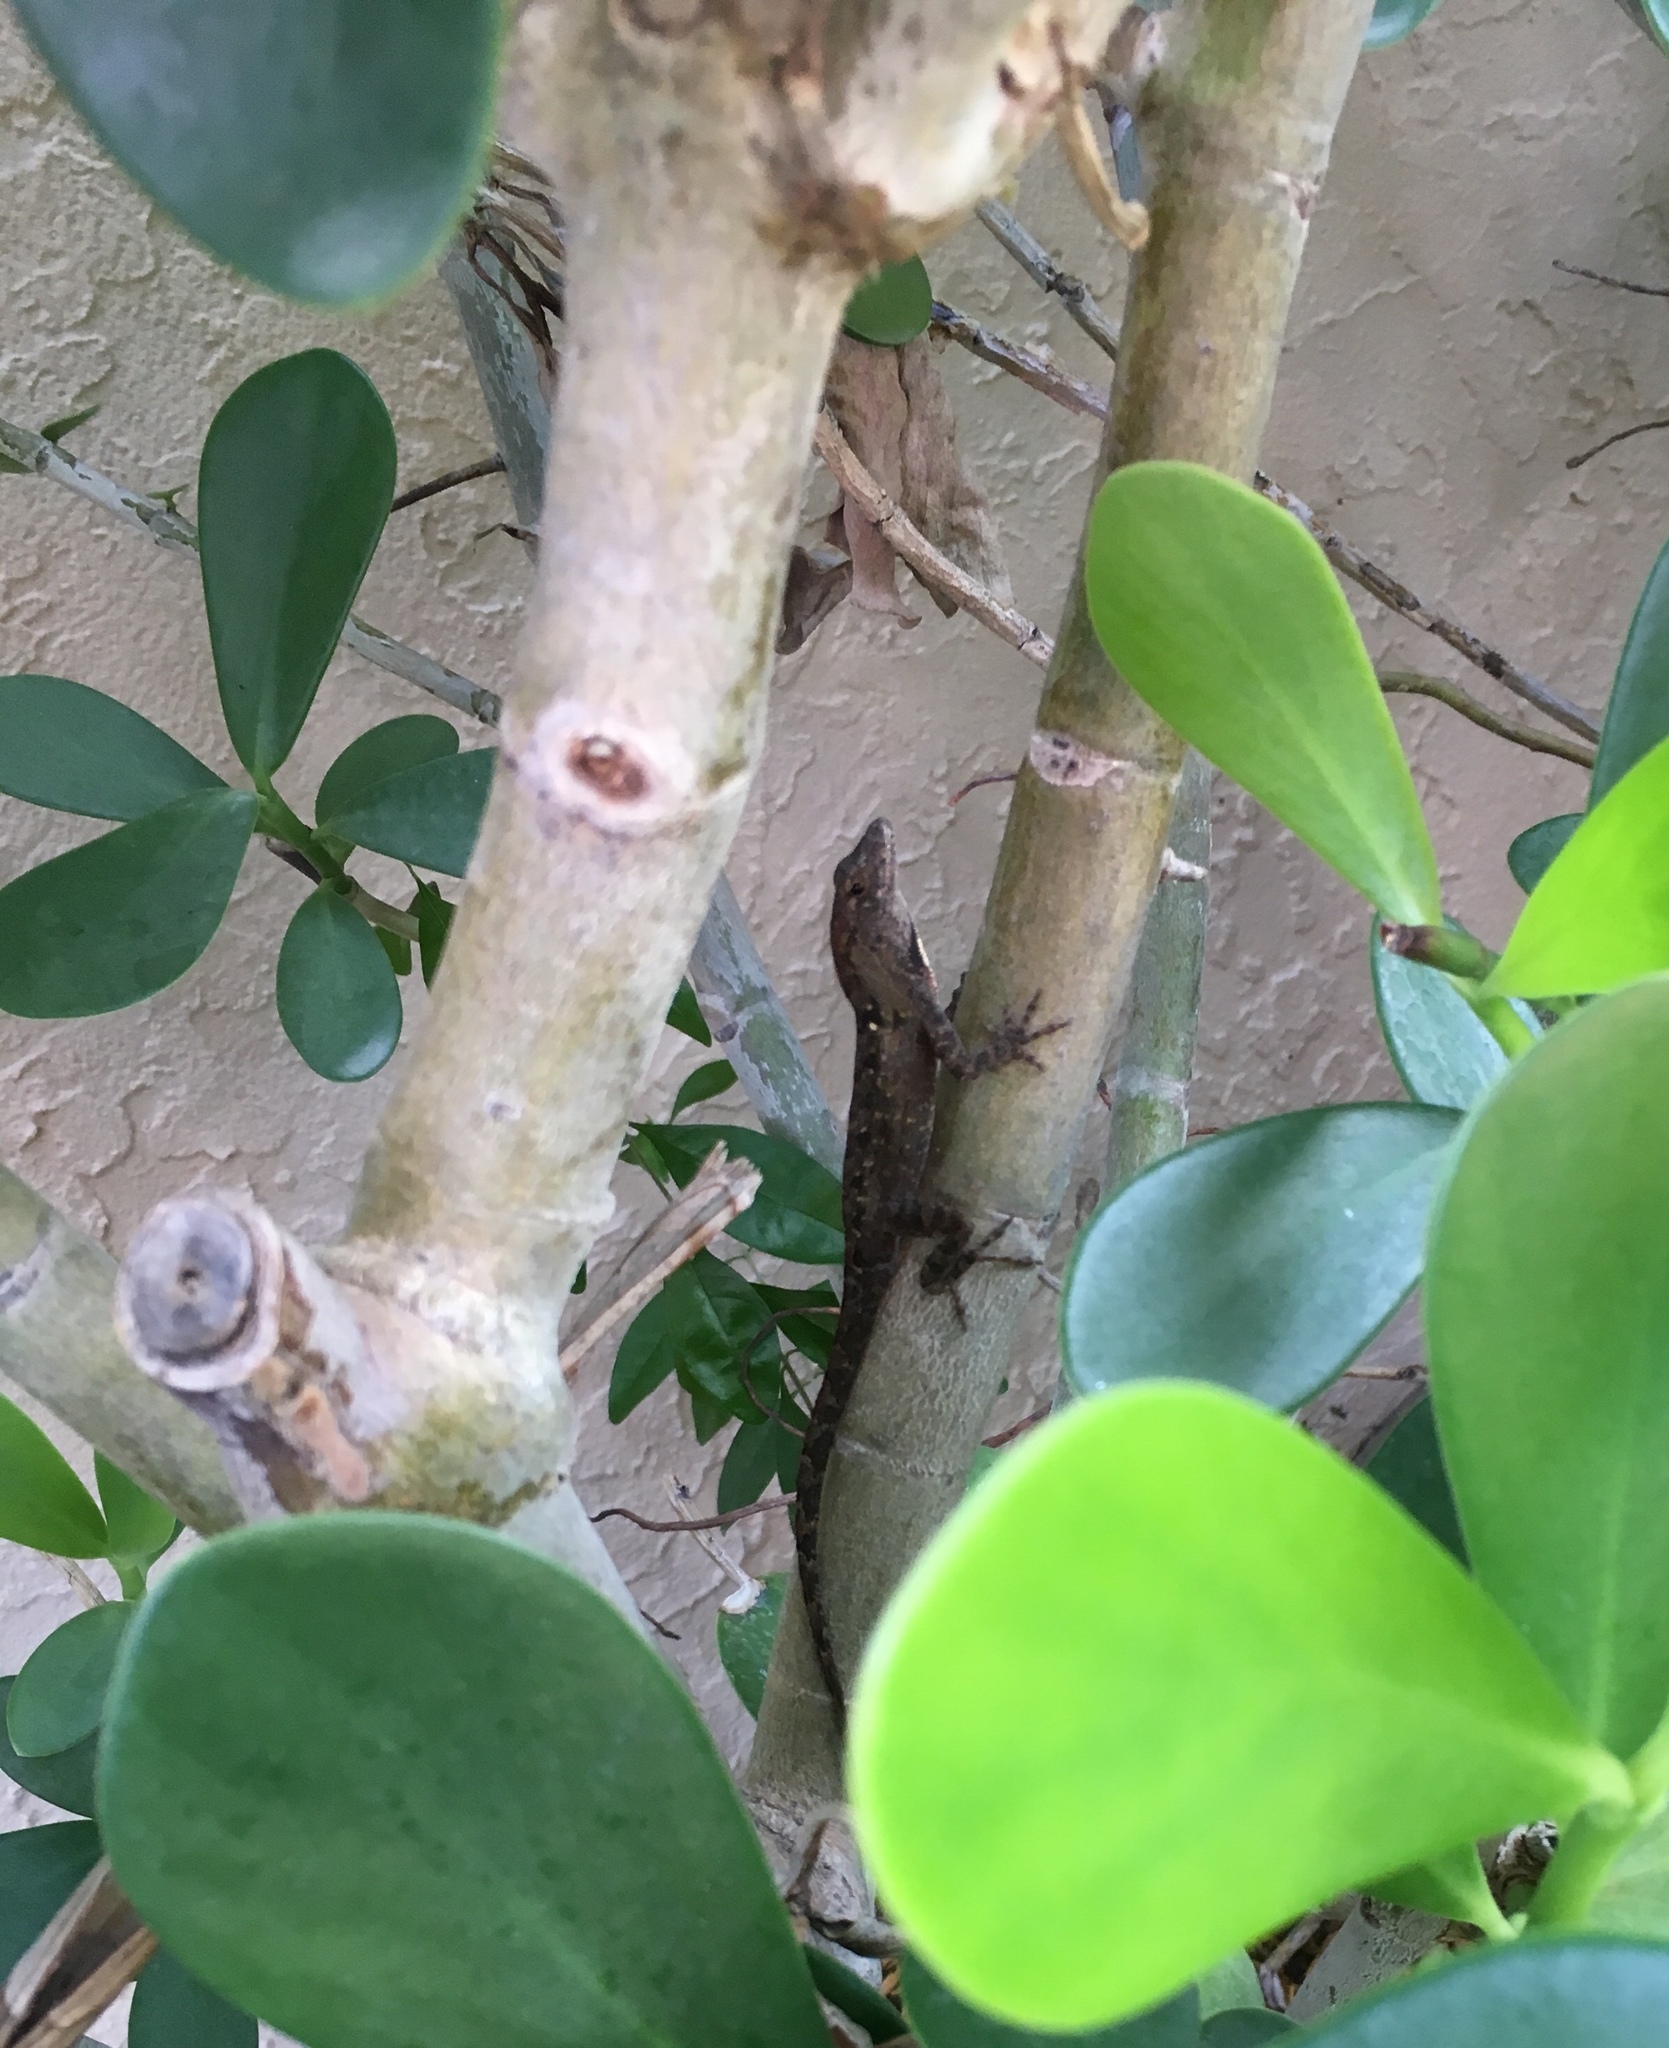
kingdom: Animalia
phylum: Chordata
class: Squamata
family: Dactyloidae
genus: Anolis
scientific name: Anolis sagrei
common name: Brown anole
